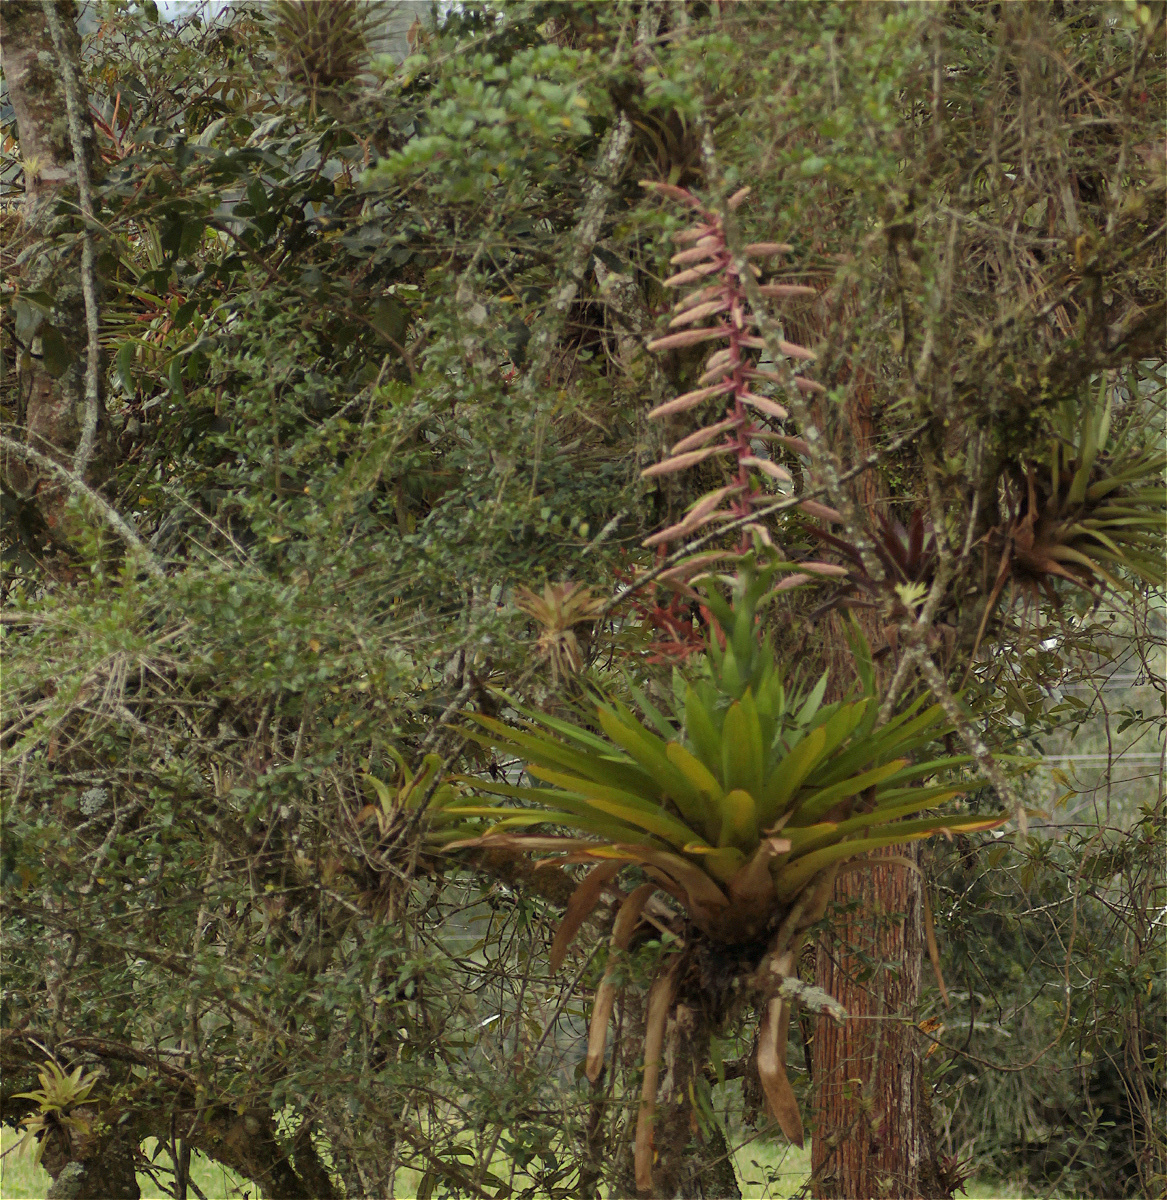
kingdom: Plantae
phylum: Tracheophyta
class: Liliopsida
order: Poales
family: Bromeliaceae
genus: Tillandsia
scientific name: Tillandsia fendleri
